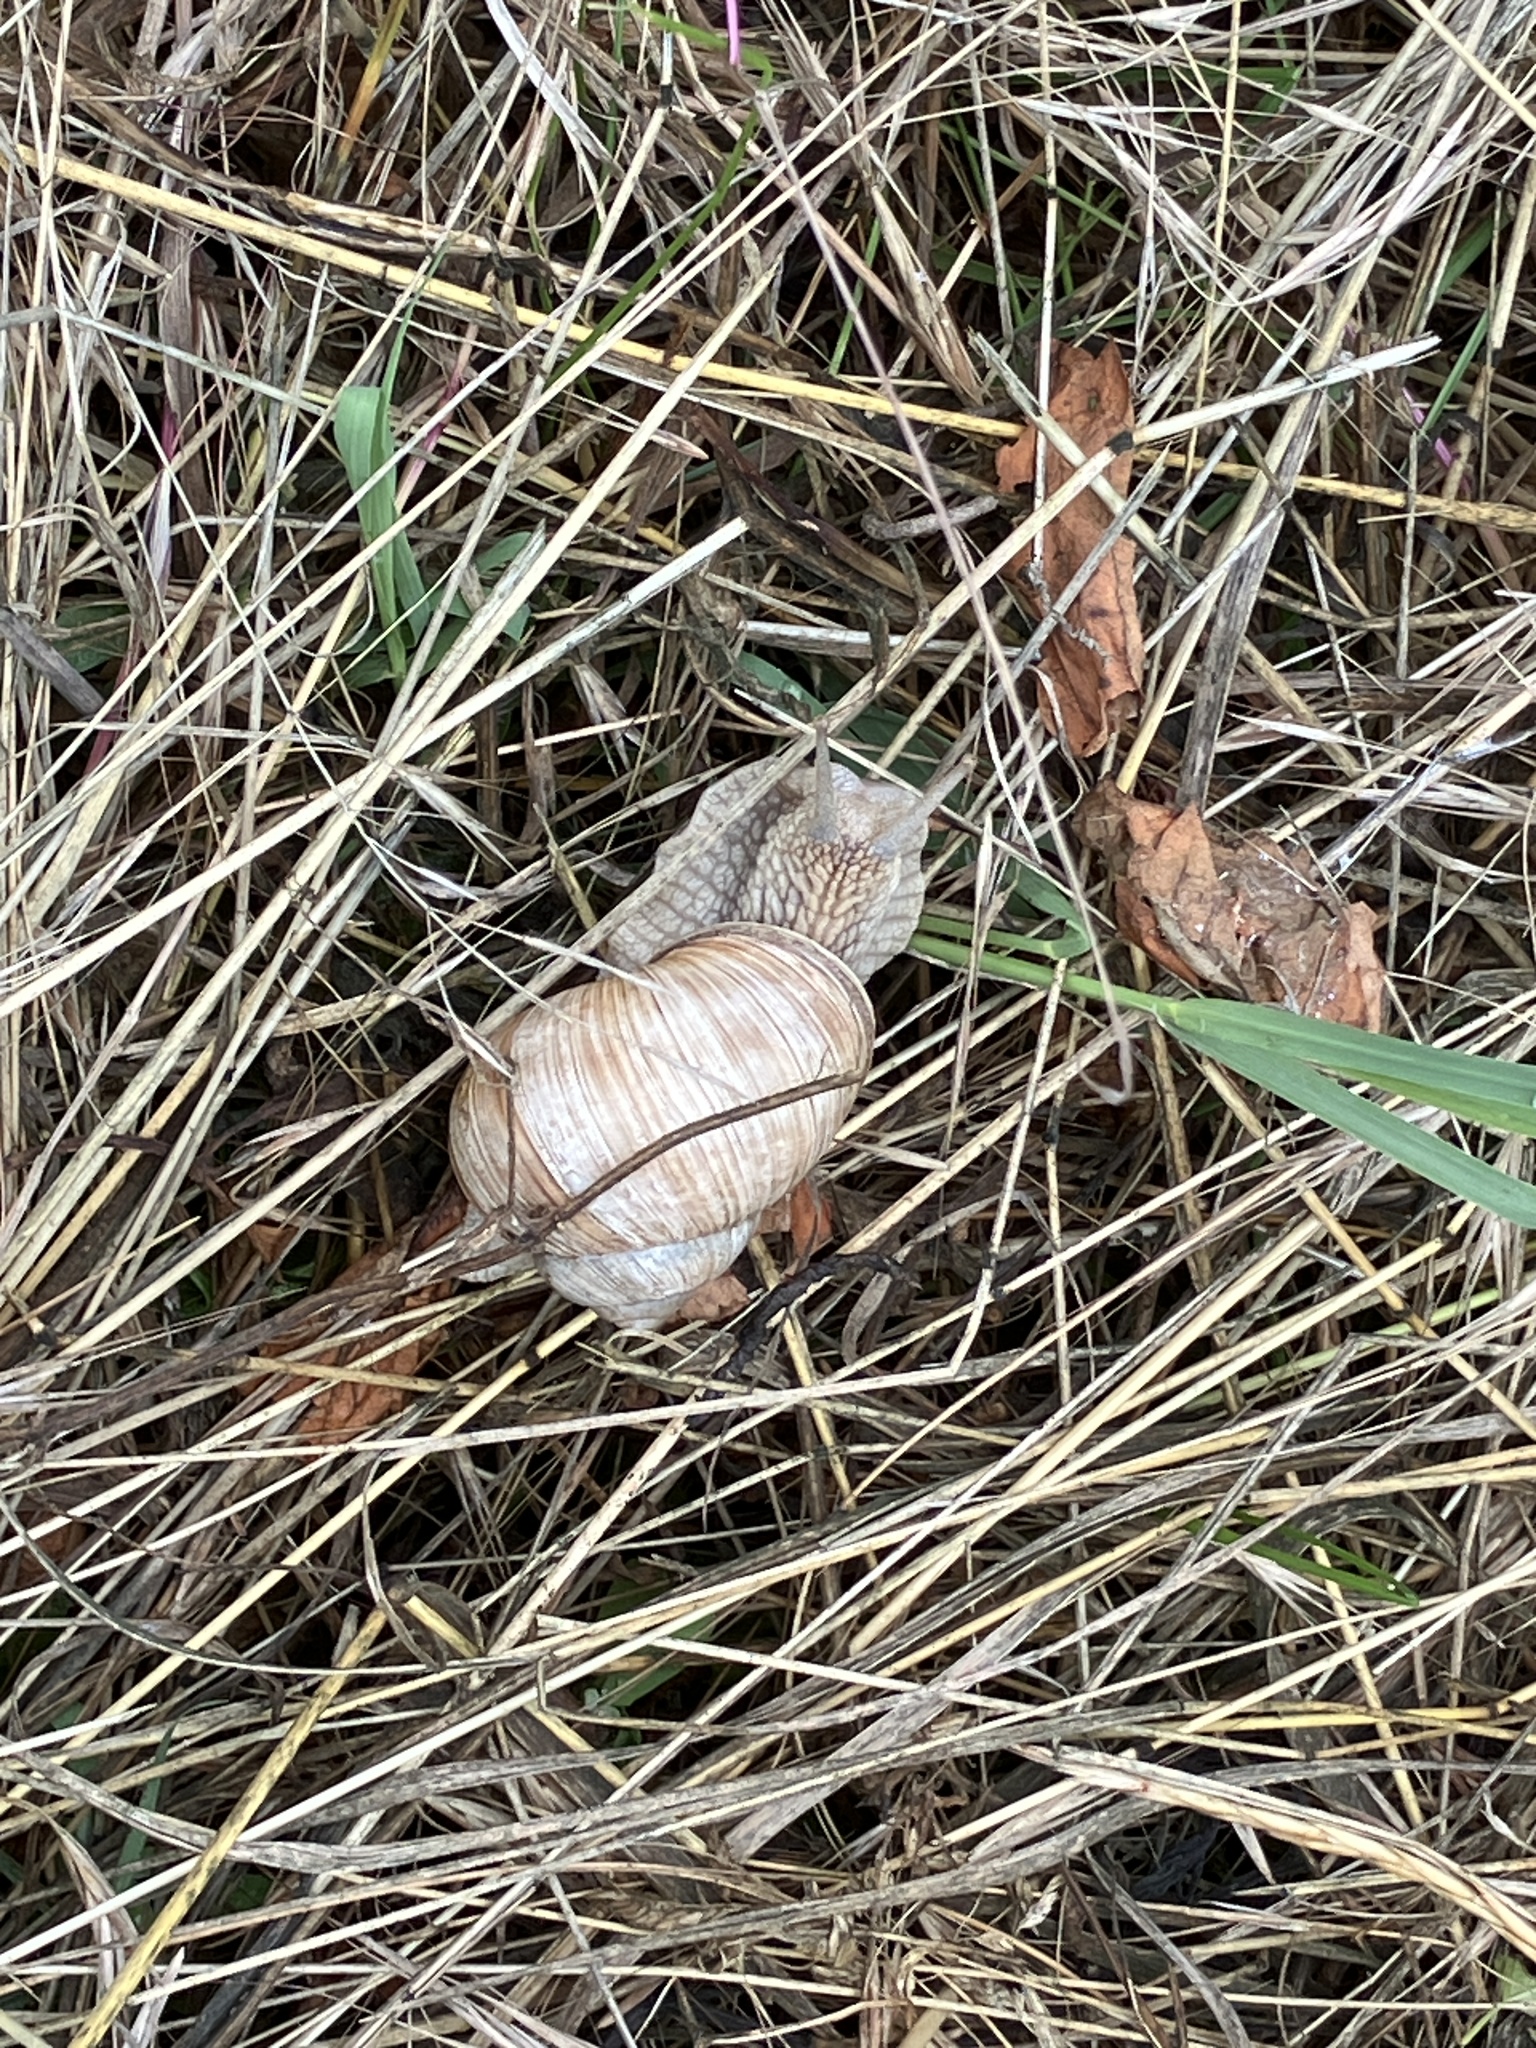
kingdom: Animalia
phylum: Mollusca
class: Gastropoda
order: Stylommatophora
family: Helicidae
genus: Helix
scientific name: Helix pomatia
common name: Roman snail
